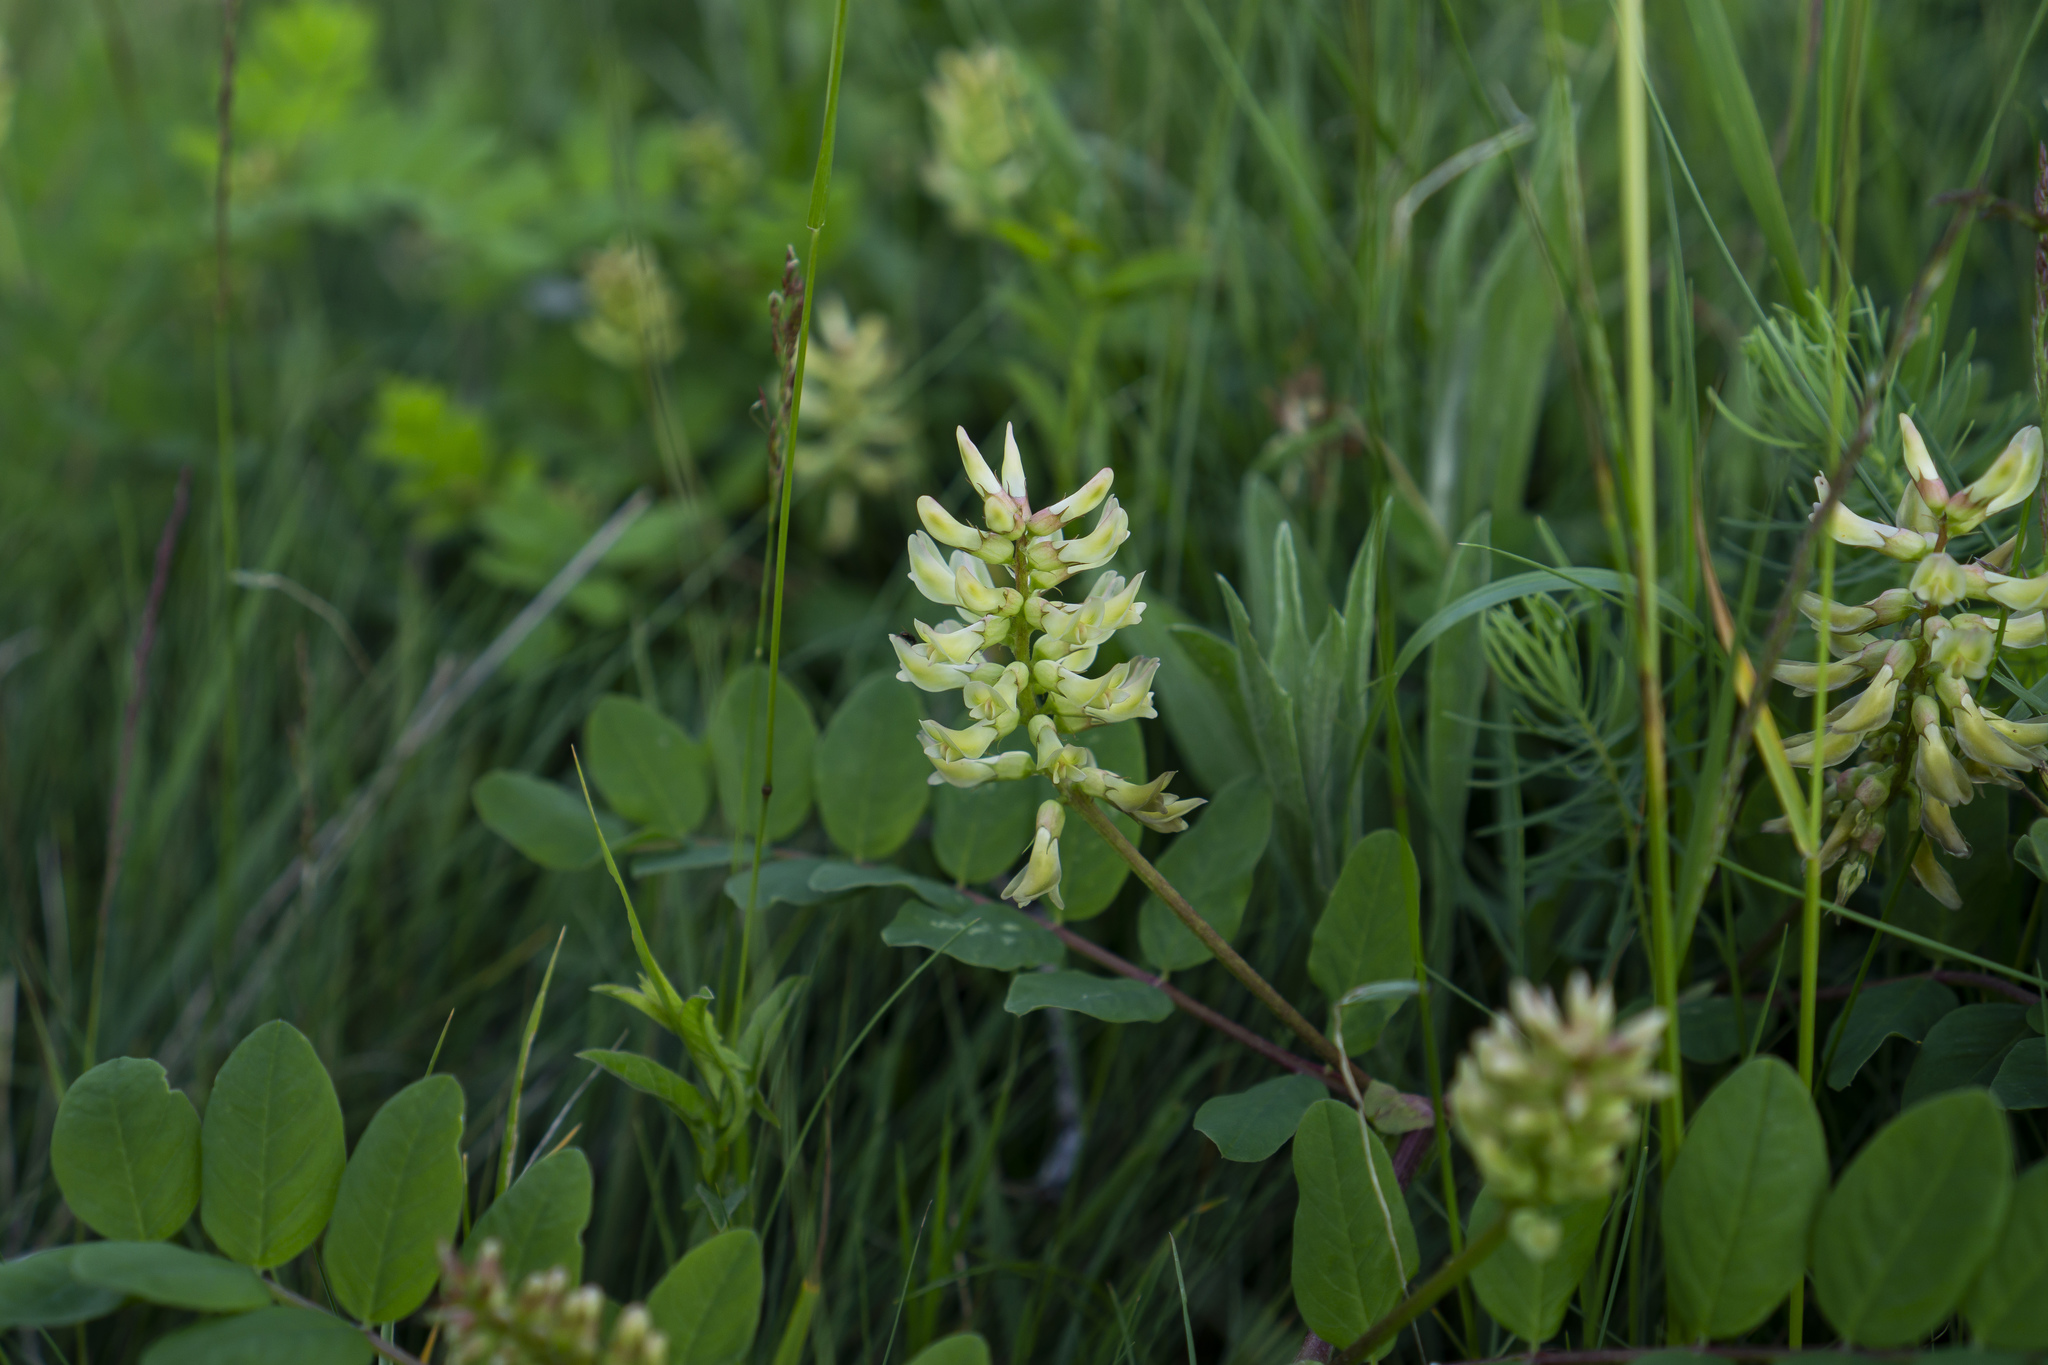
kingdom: Plantae
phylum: Tracheophyta
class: Magnoliopsida
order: Fabales
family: Fabaceae
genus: Astragalus
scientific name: Astragalus glycyphyllos
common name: Wild liquorice
